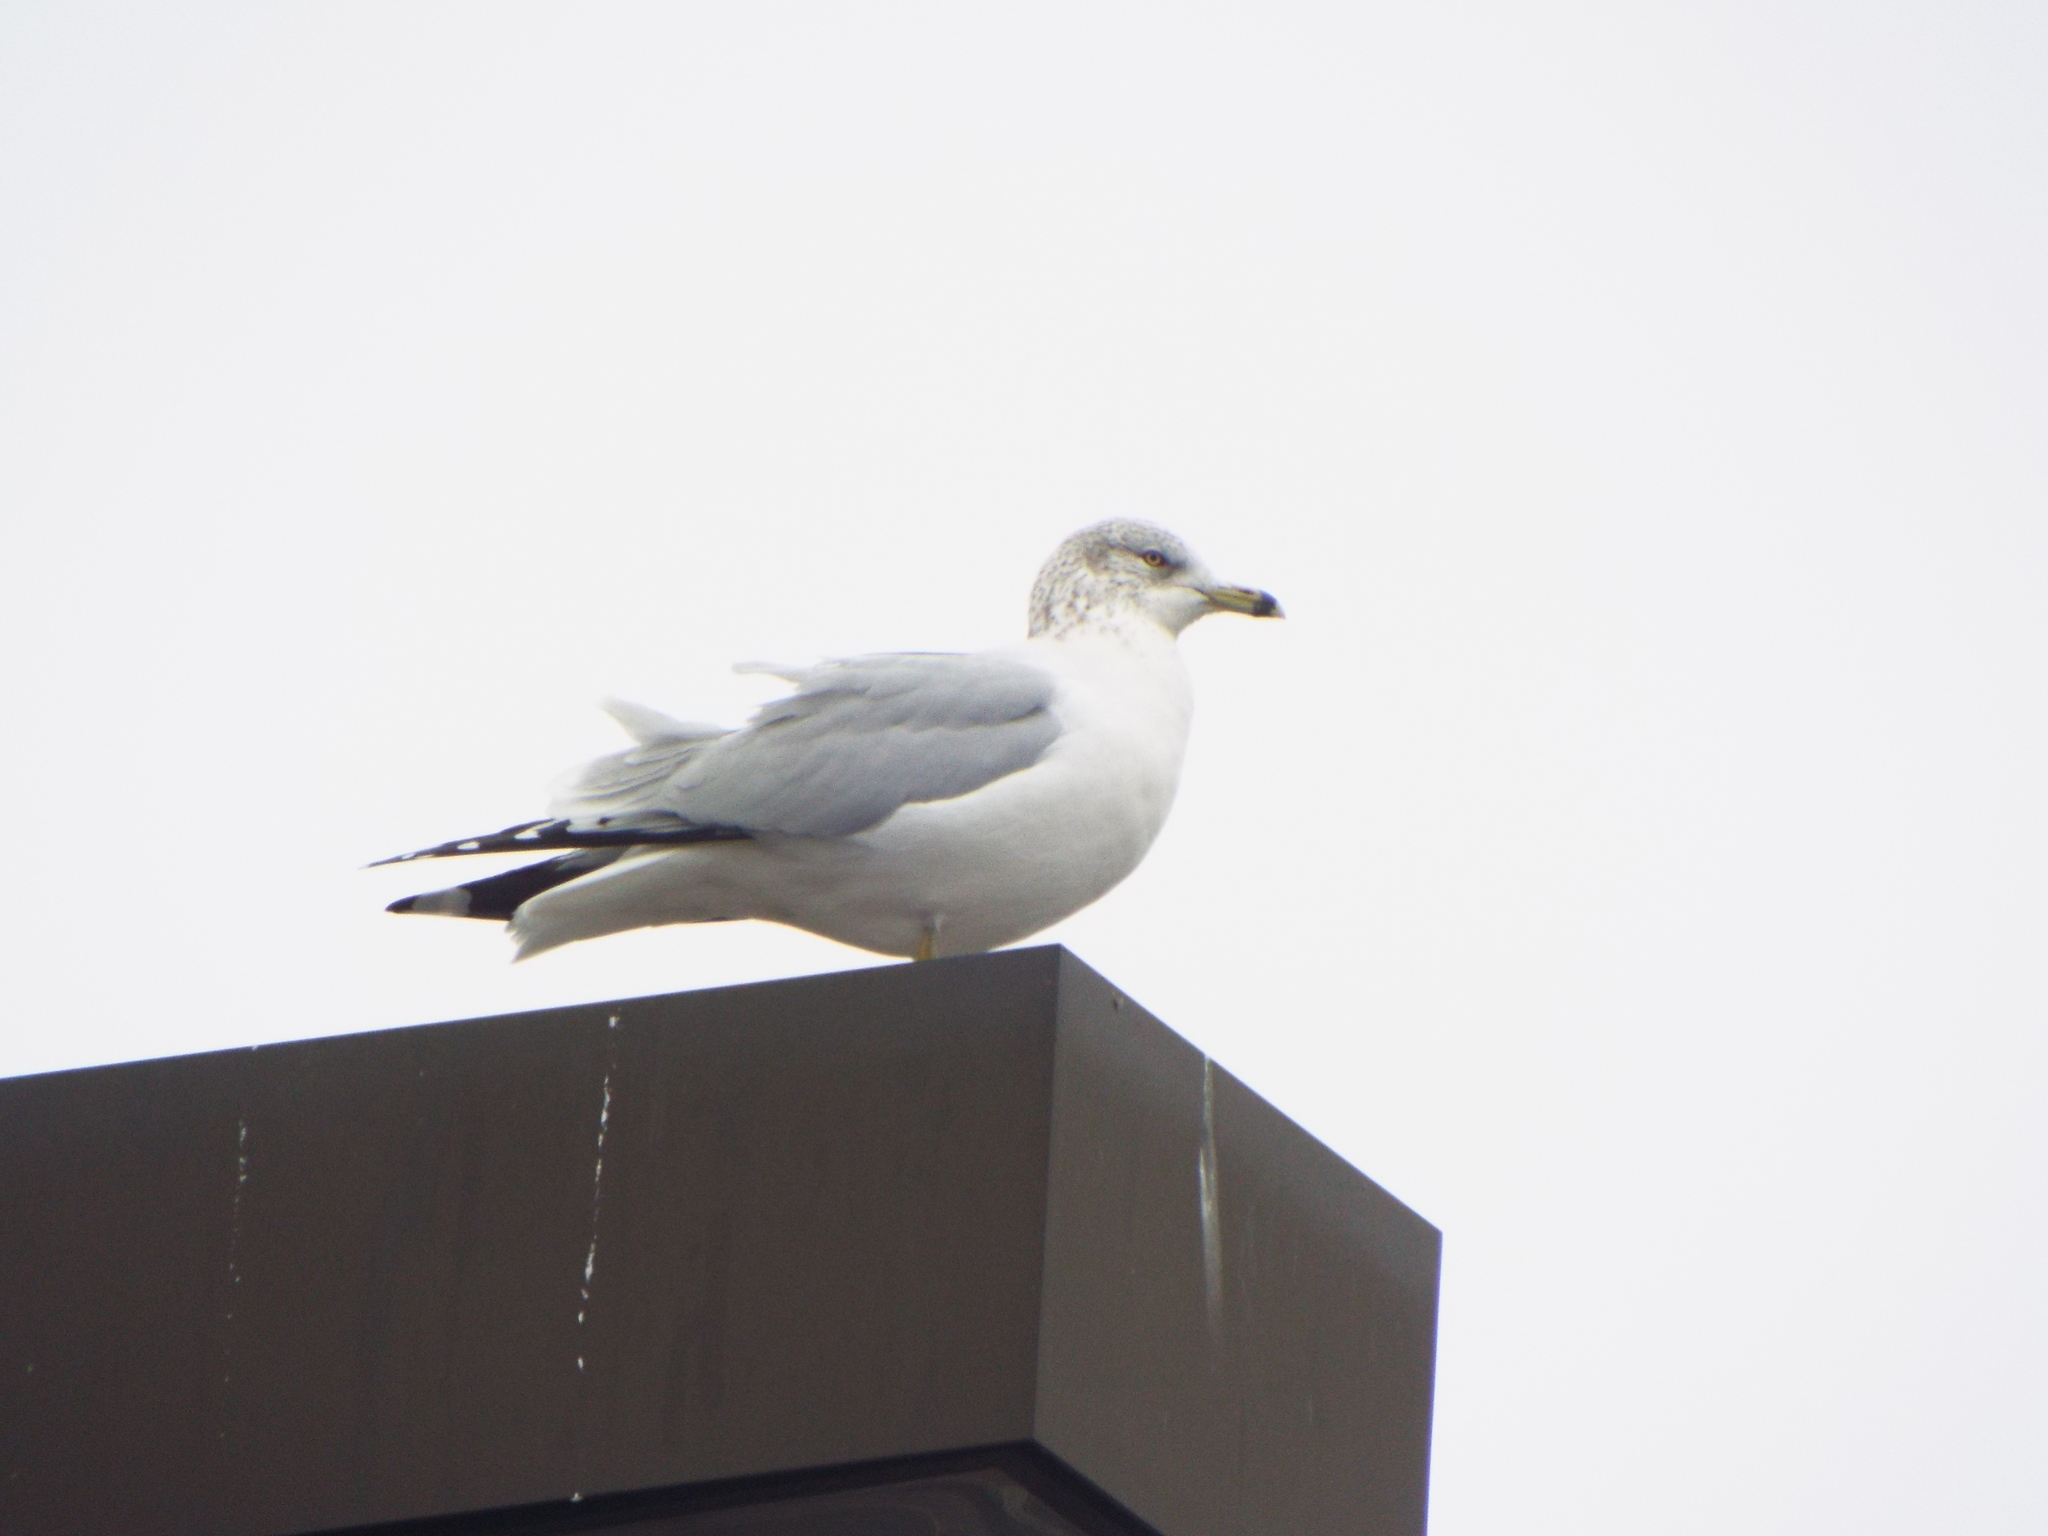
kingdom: Animalia
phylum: Chordata
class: Aves
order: Charadriiformes
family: Laridae
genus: Larus
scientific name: Larus delawarensis
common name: Ring-billed gull
